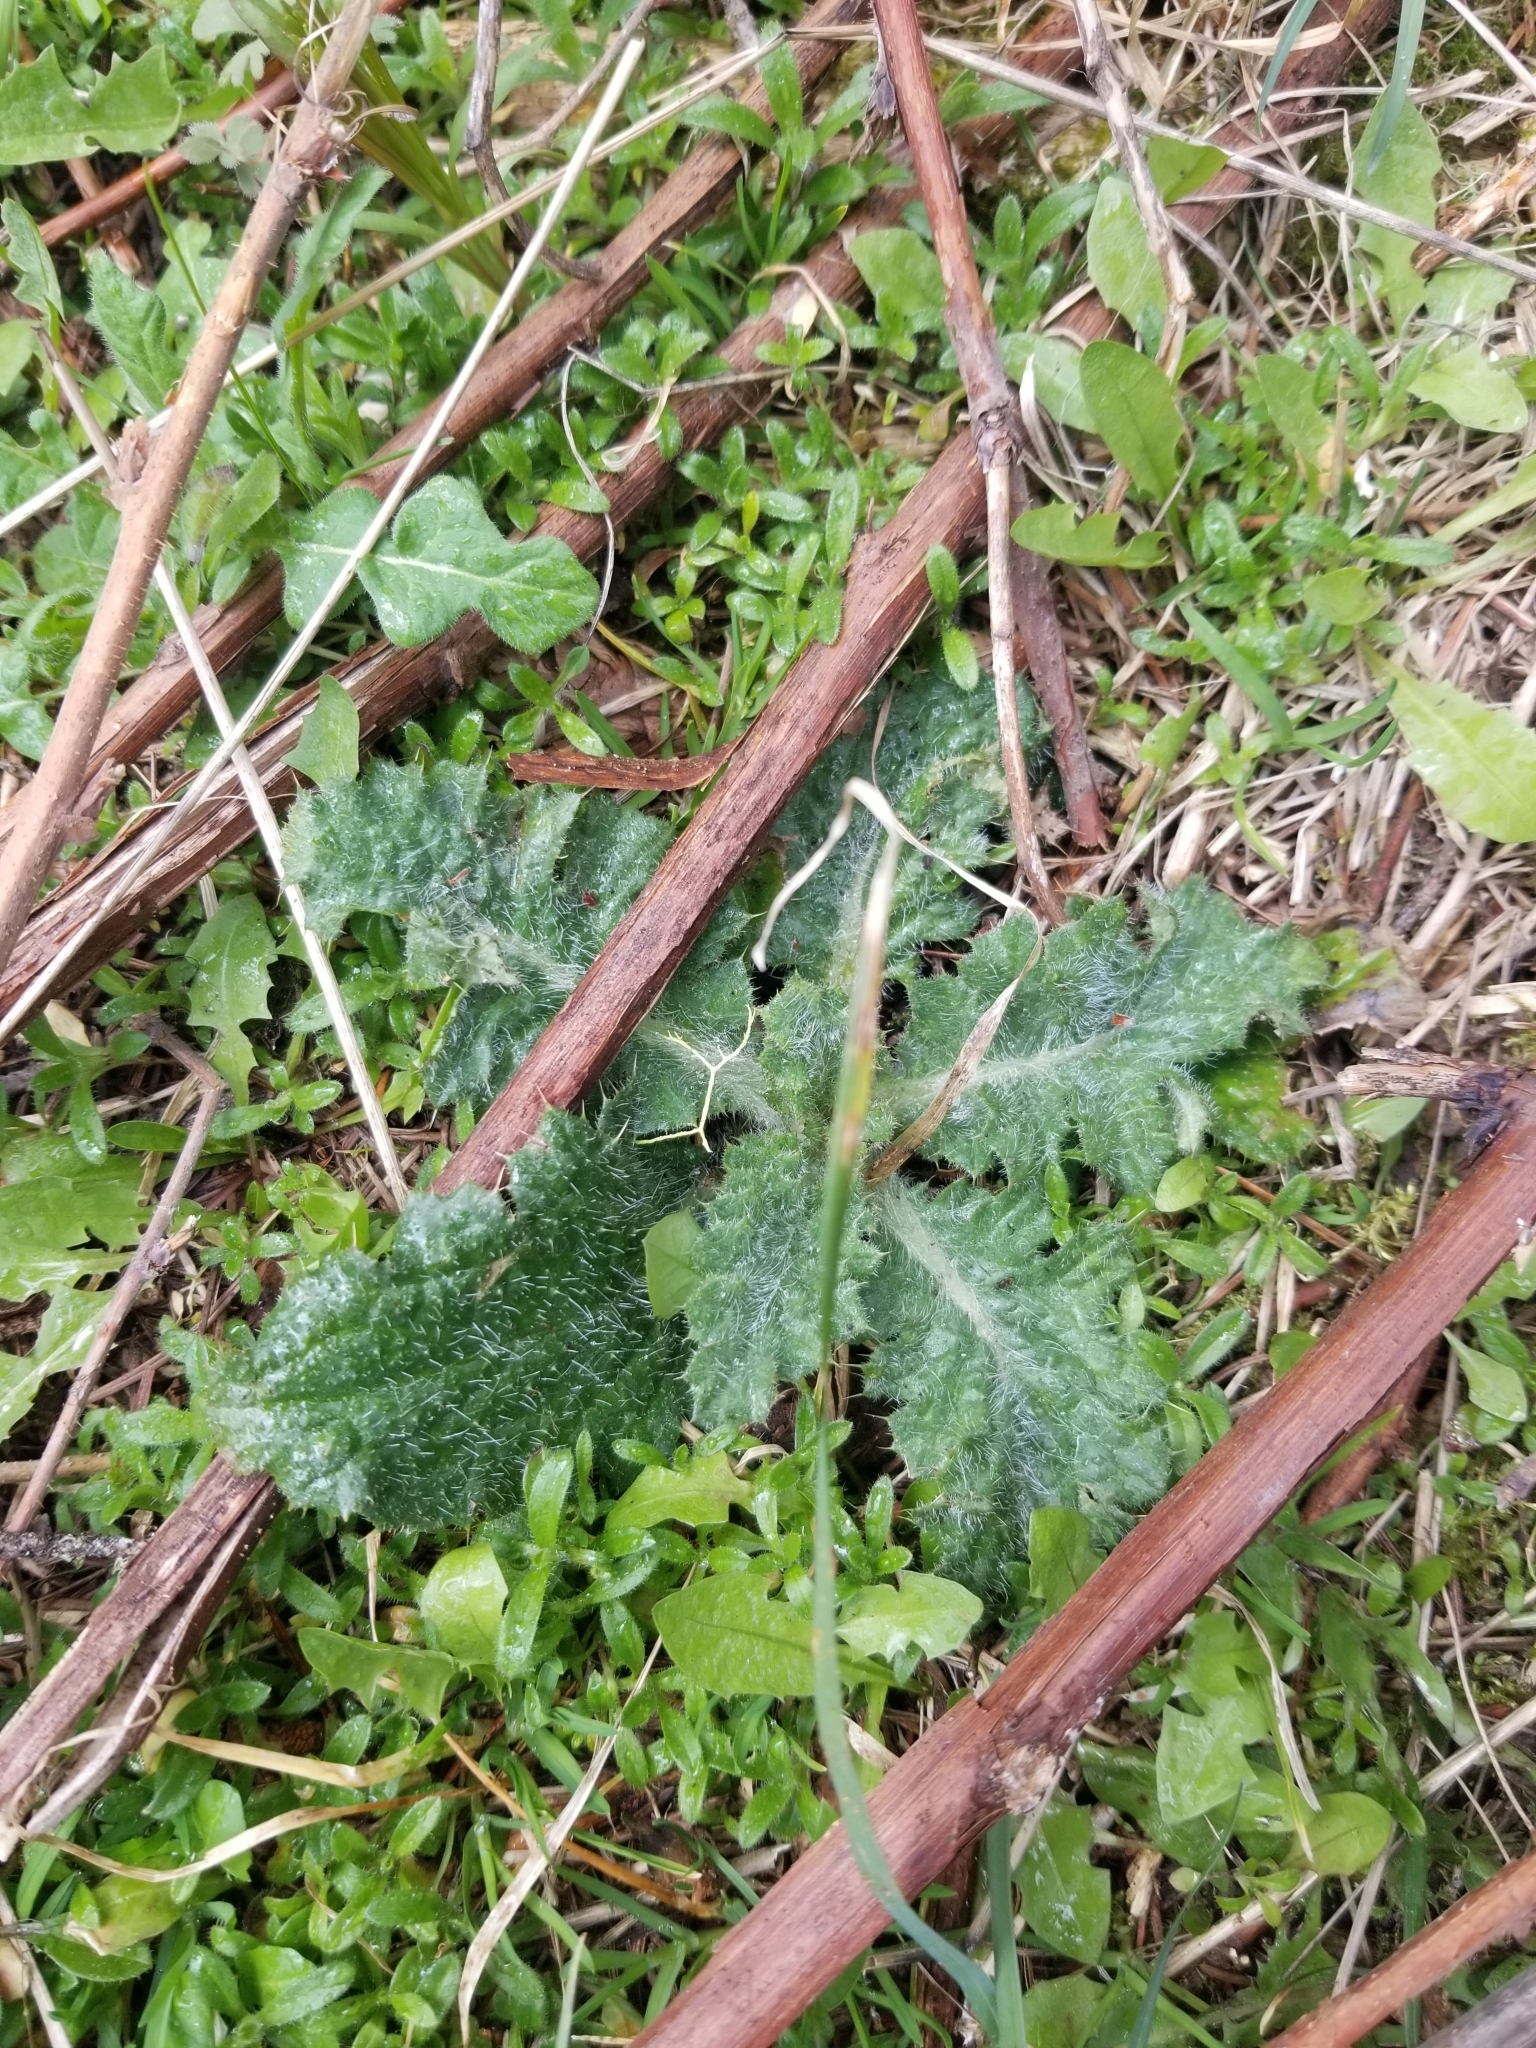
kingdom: Plantae
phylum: Tracheophyta
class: Magnoliopsida
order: Asterales
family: Asteraceae
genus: Cirsium
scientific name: Cirsium vulgare
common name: Bull thistle
